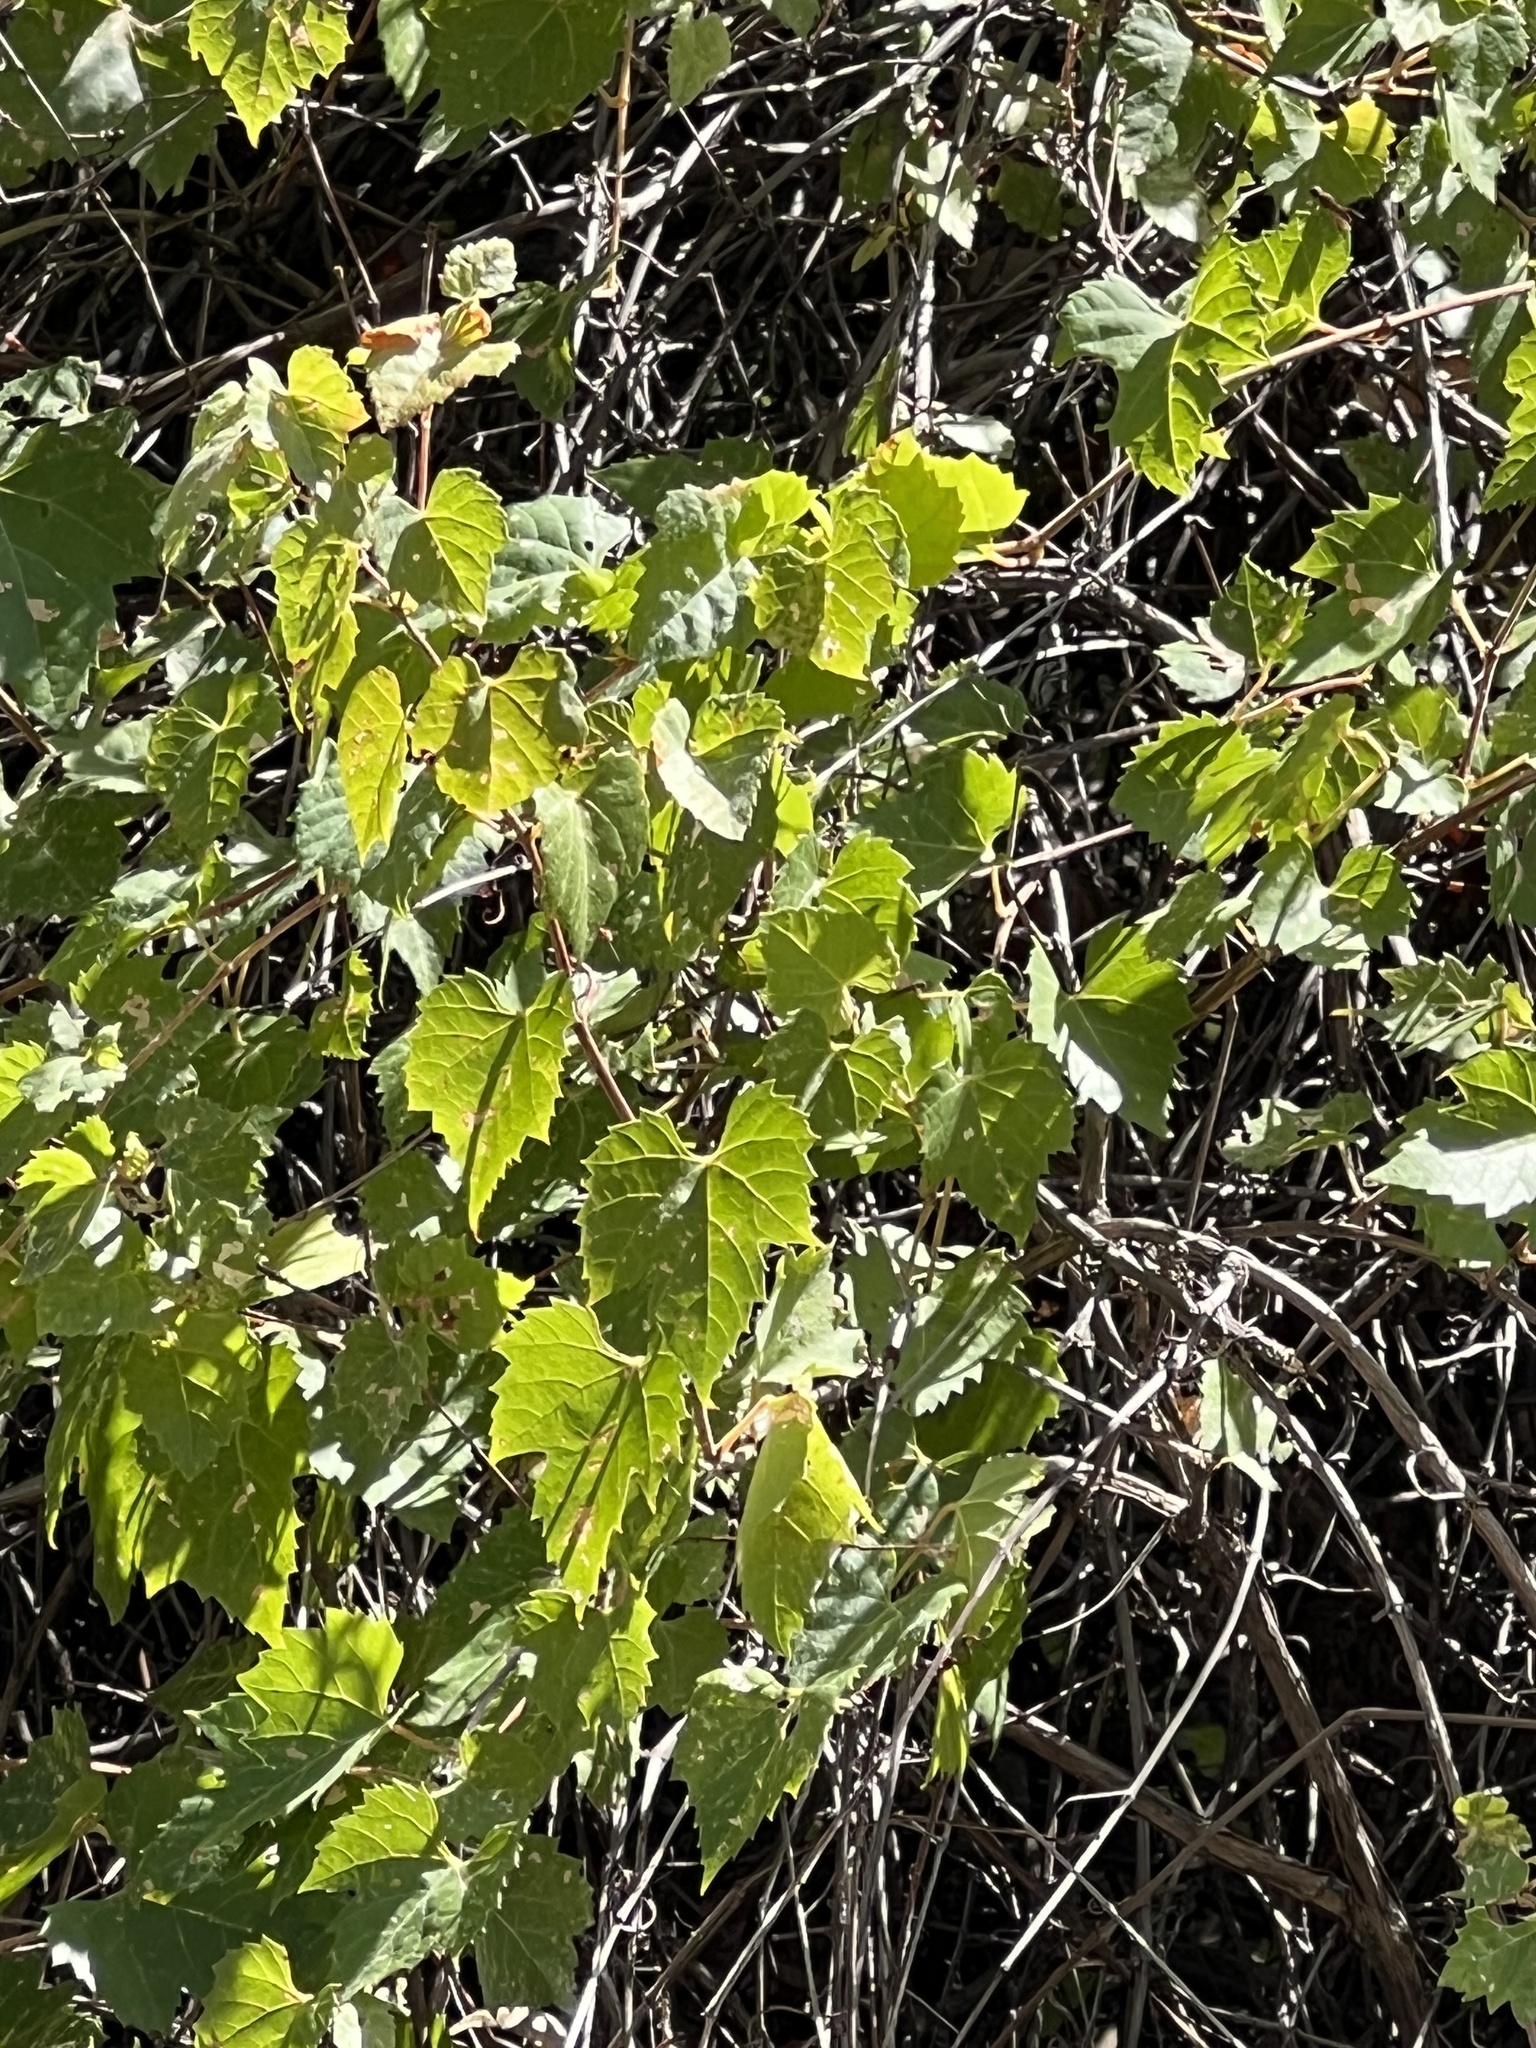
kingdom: Plantae
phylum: Tracheophyta
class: Magnoliopsida
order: Vitales
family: Vitaceae
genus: Vitis
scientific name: Vitis arizonica
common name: Canyon grape
